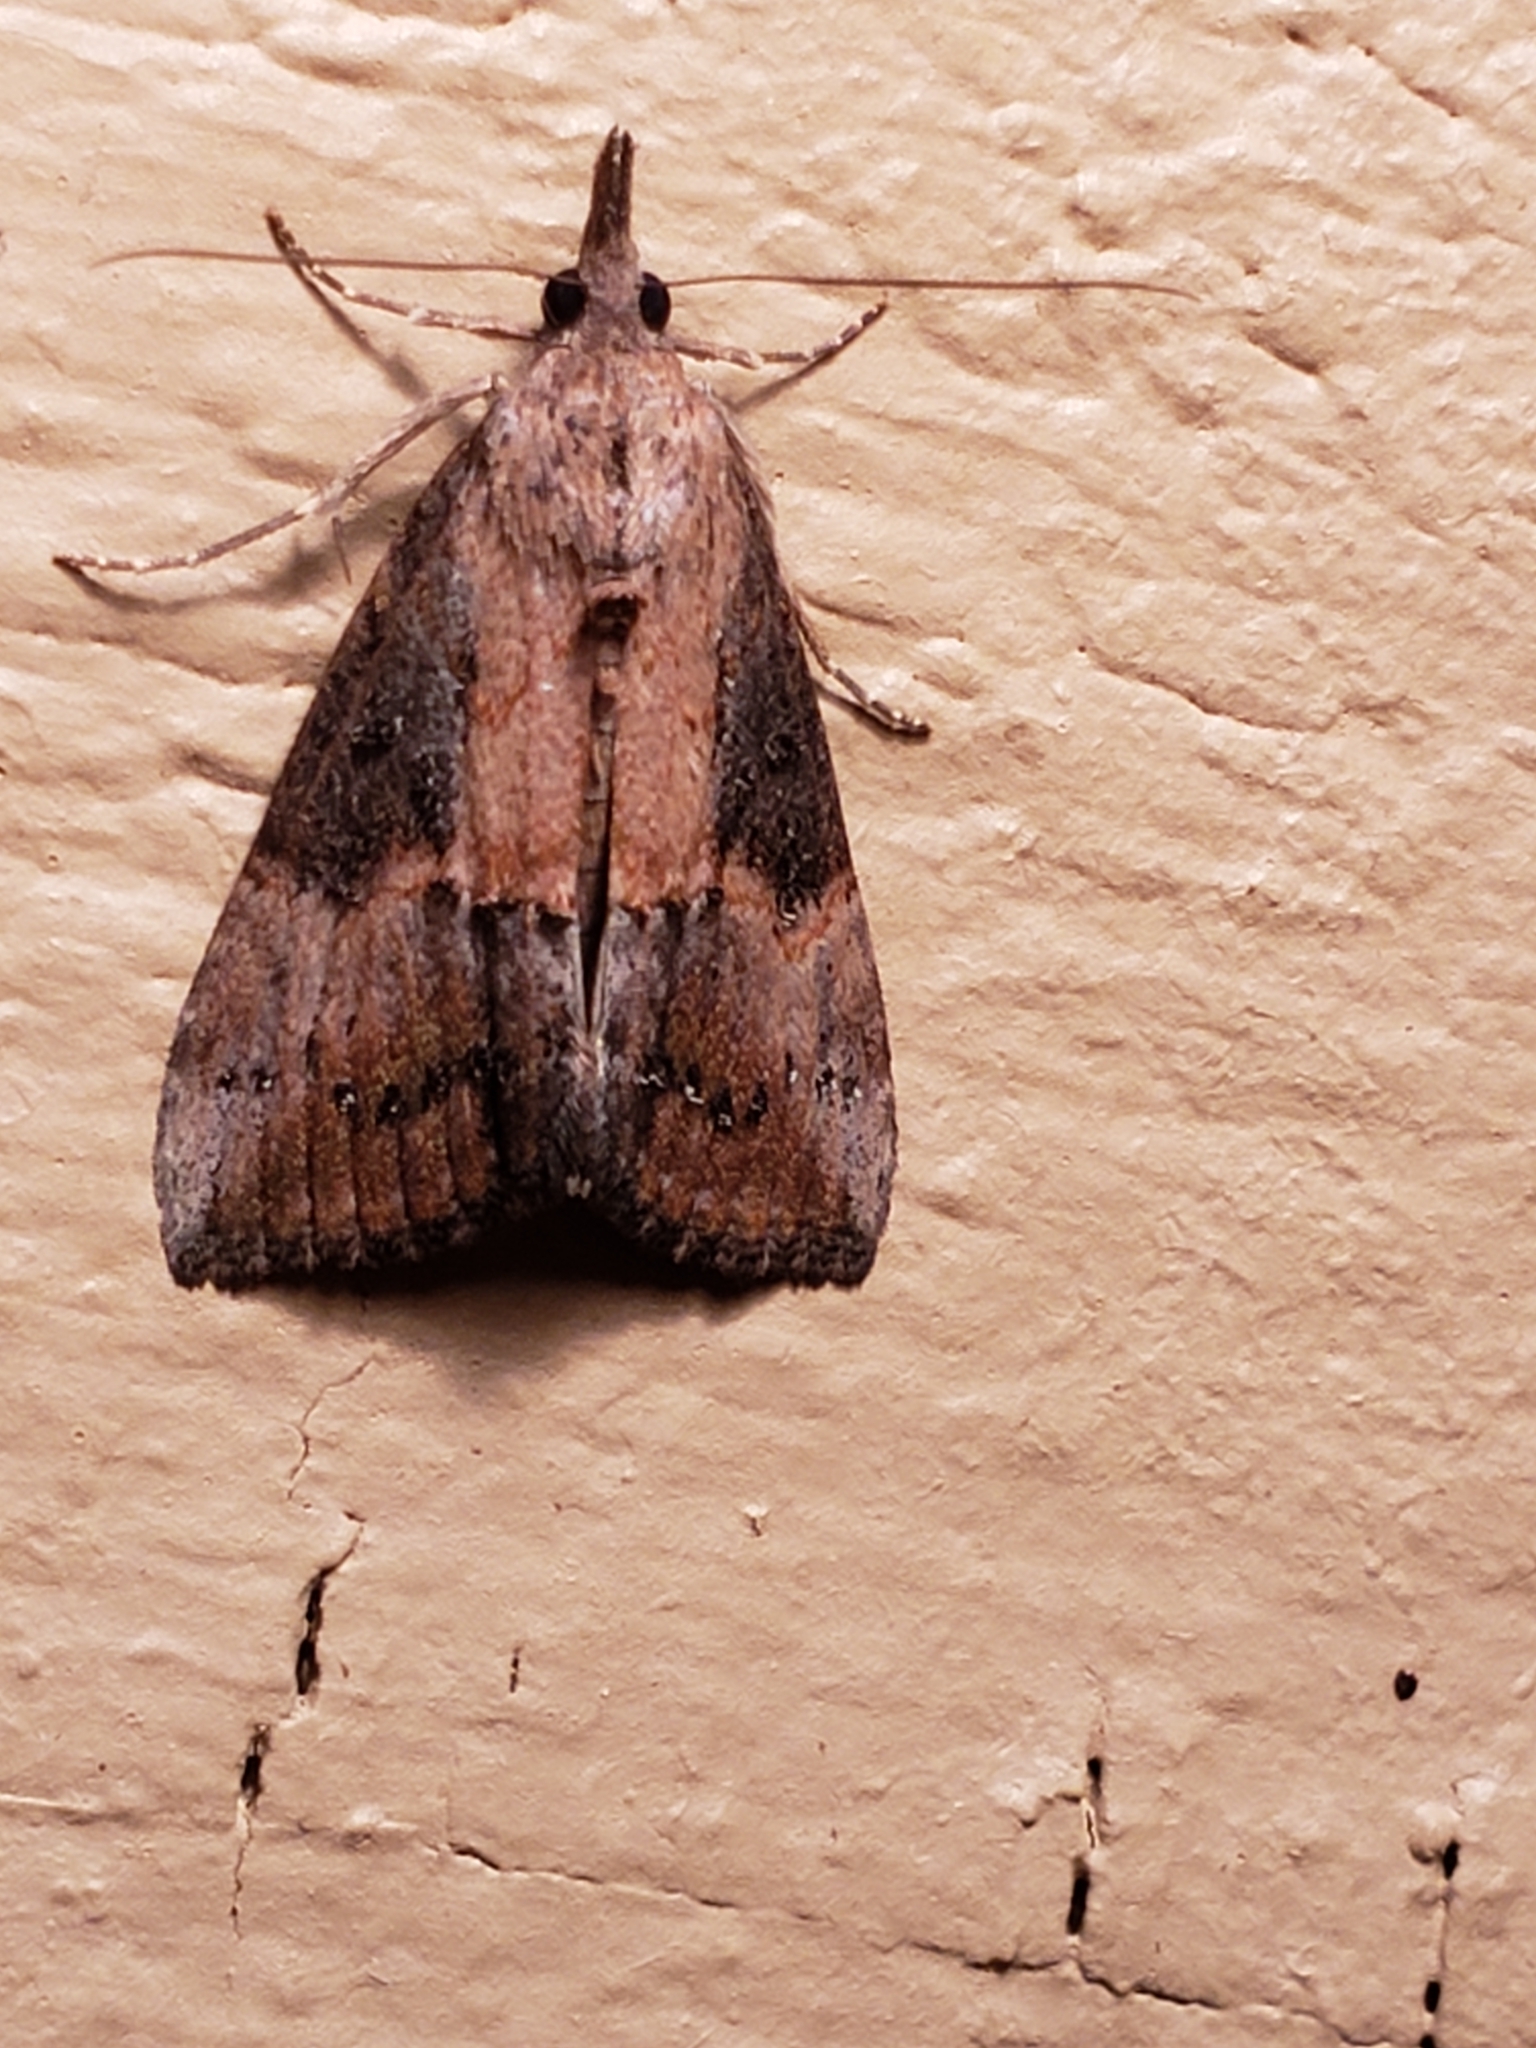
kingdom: Animalia
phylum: Arthropoda
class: Insecta
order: Lepidoptera
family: Erebidae
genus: Hypena
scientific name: Hypena scabra
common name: Green cloverworm
